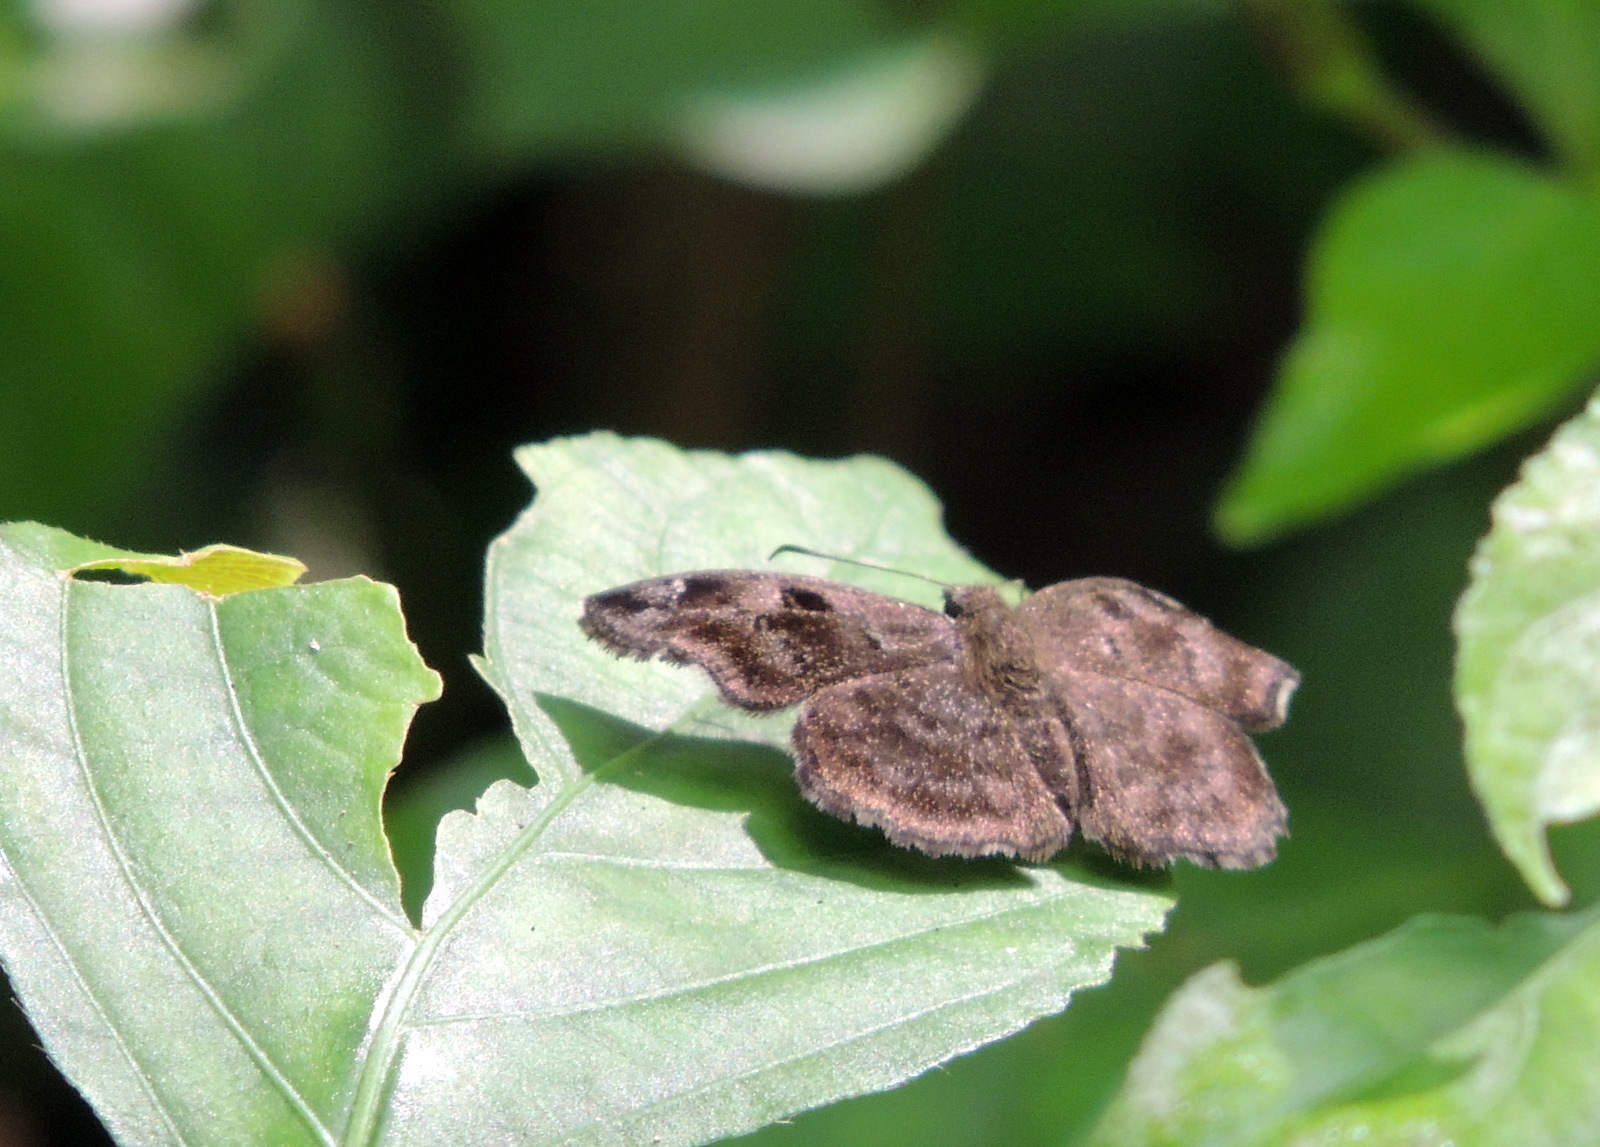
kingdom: Animalia
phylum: Arthropoda
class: Insecta
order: Lepidoptera
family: Hesperiidae
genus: Eretis
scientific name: Eretis melania
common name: Dusky elf
